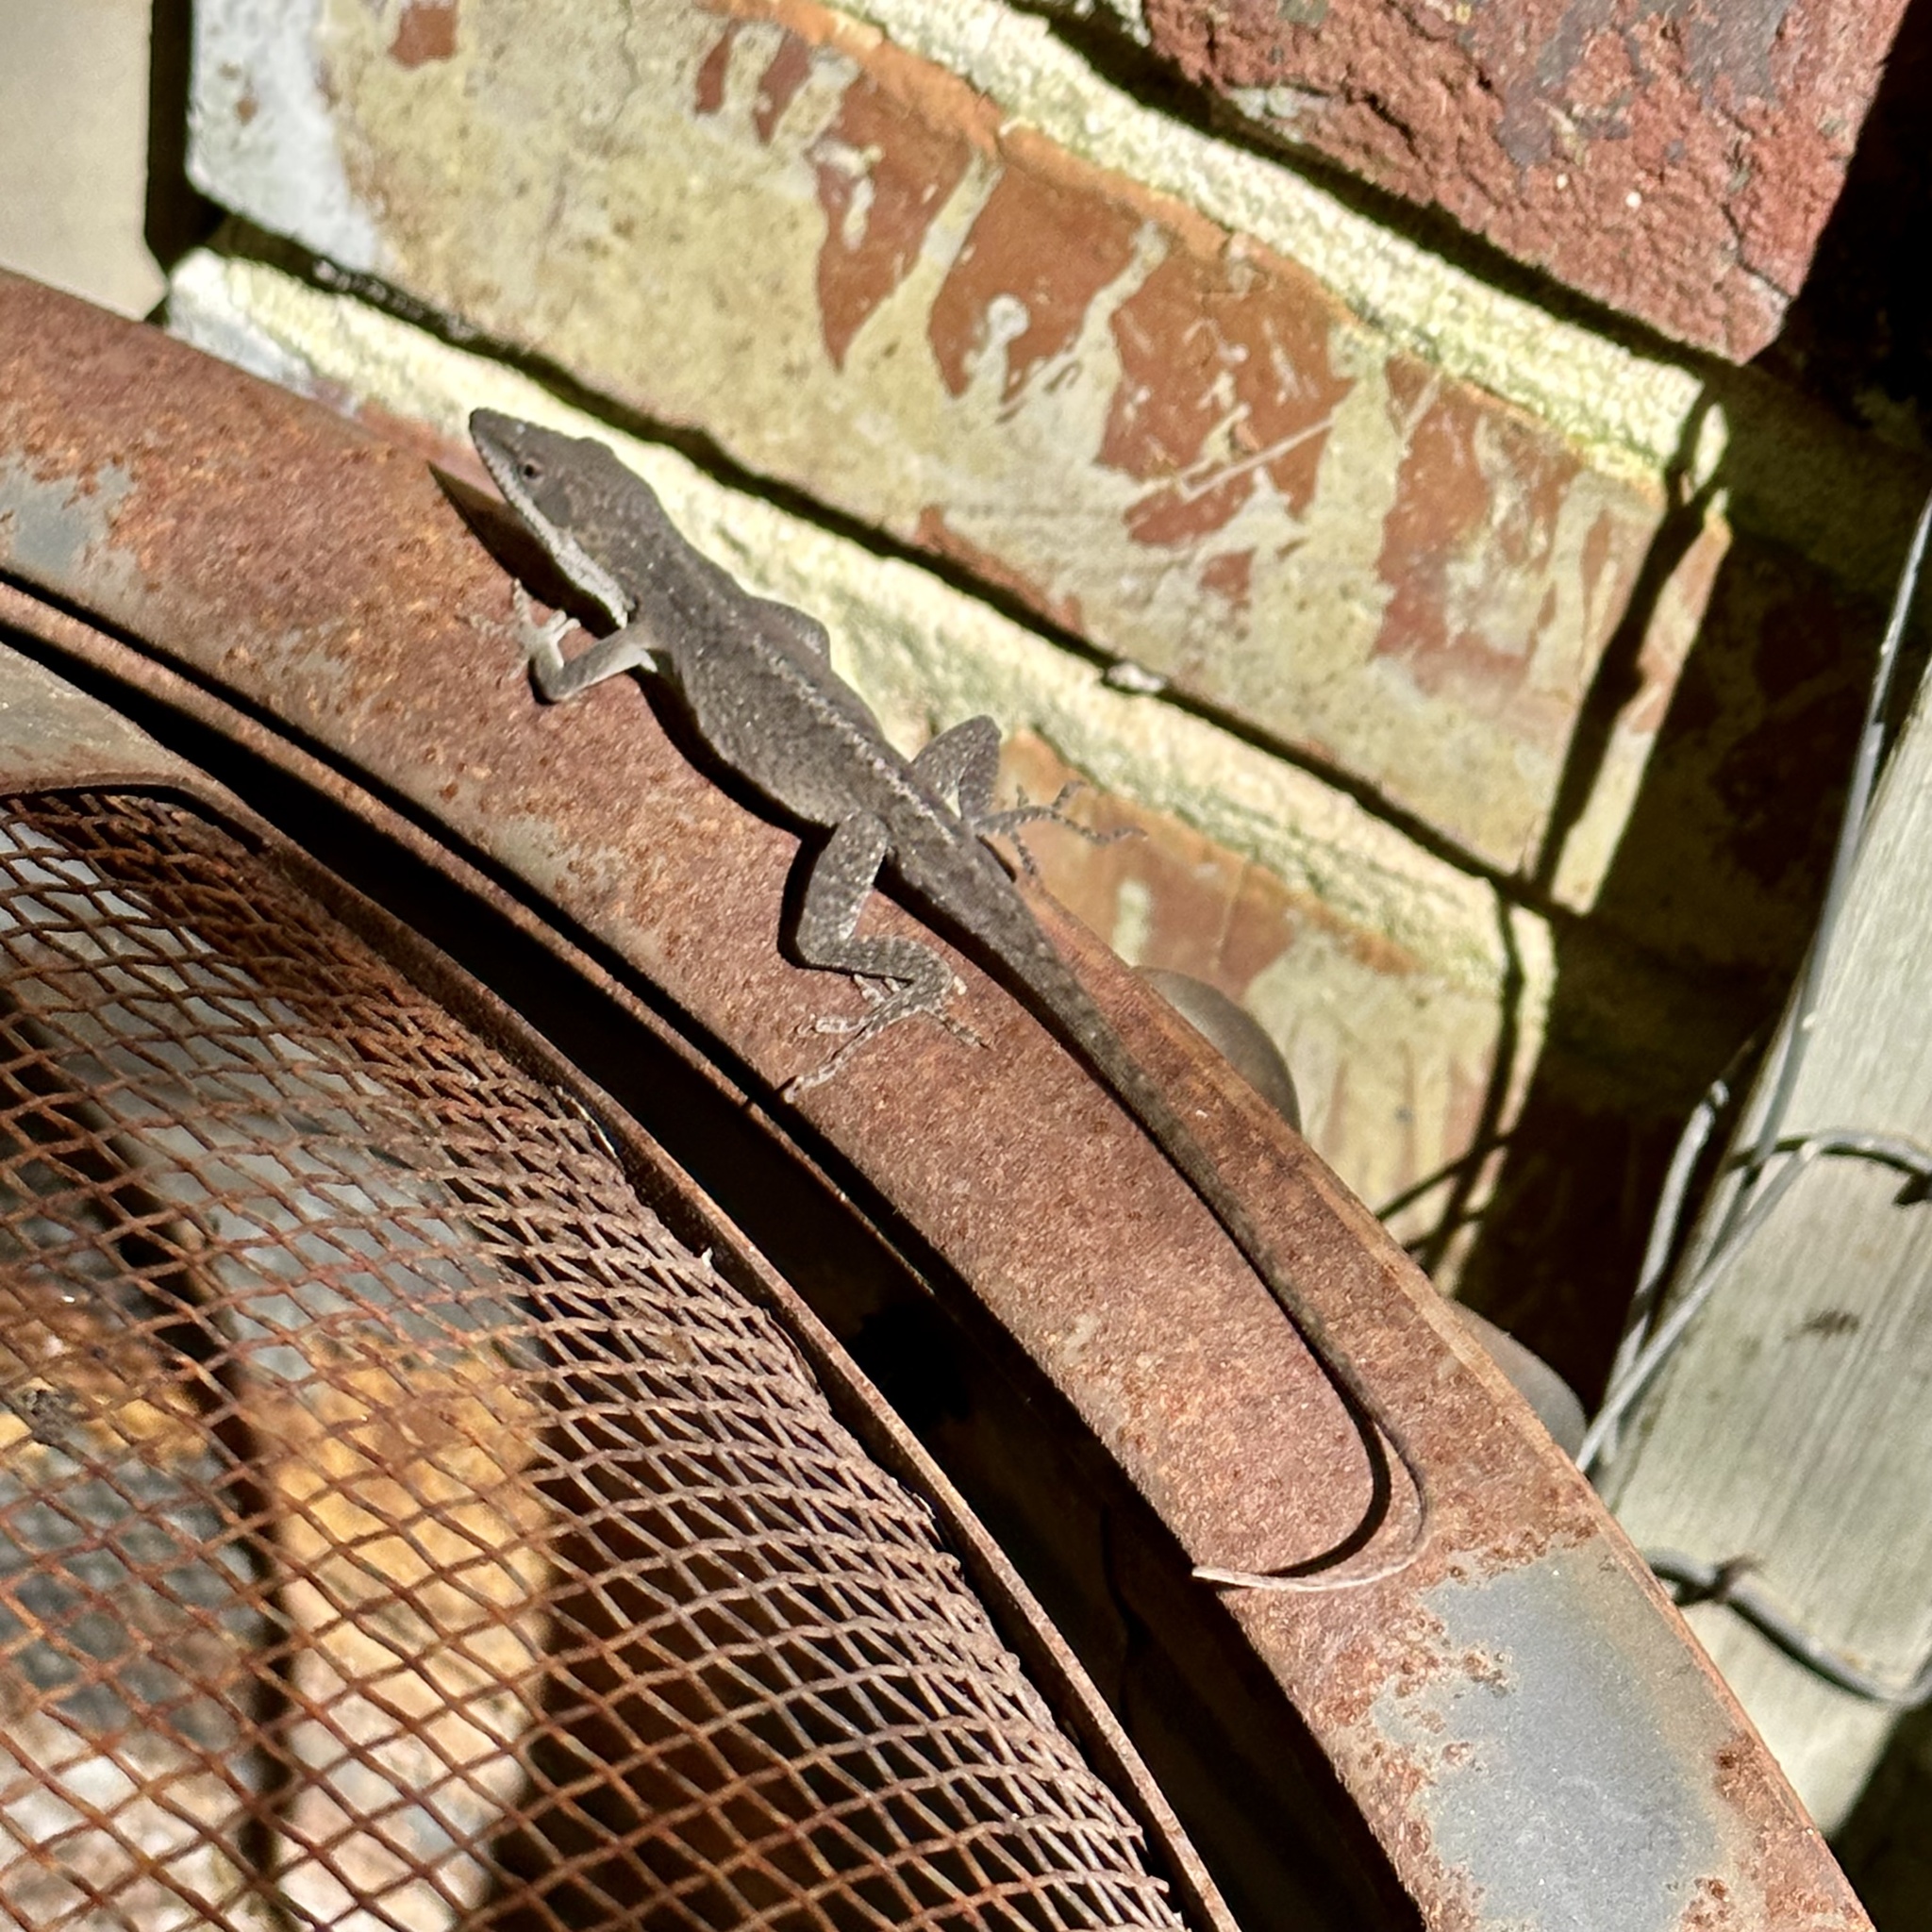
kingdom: Animalia
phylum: Chordata
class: Squamata
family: Dactyloidae
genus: Anolis
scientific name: Anolis carolinensis
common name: Green anole
